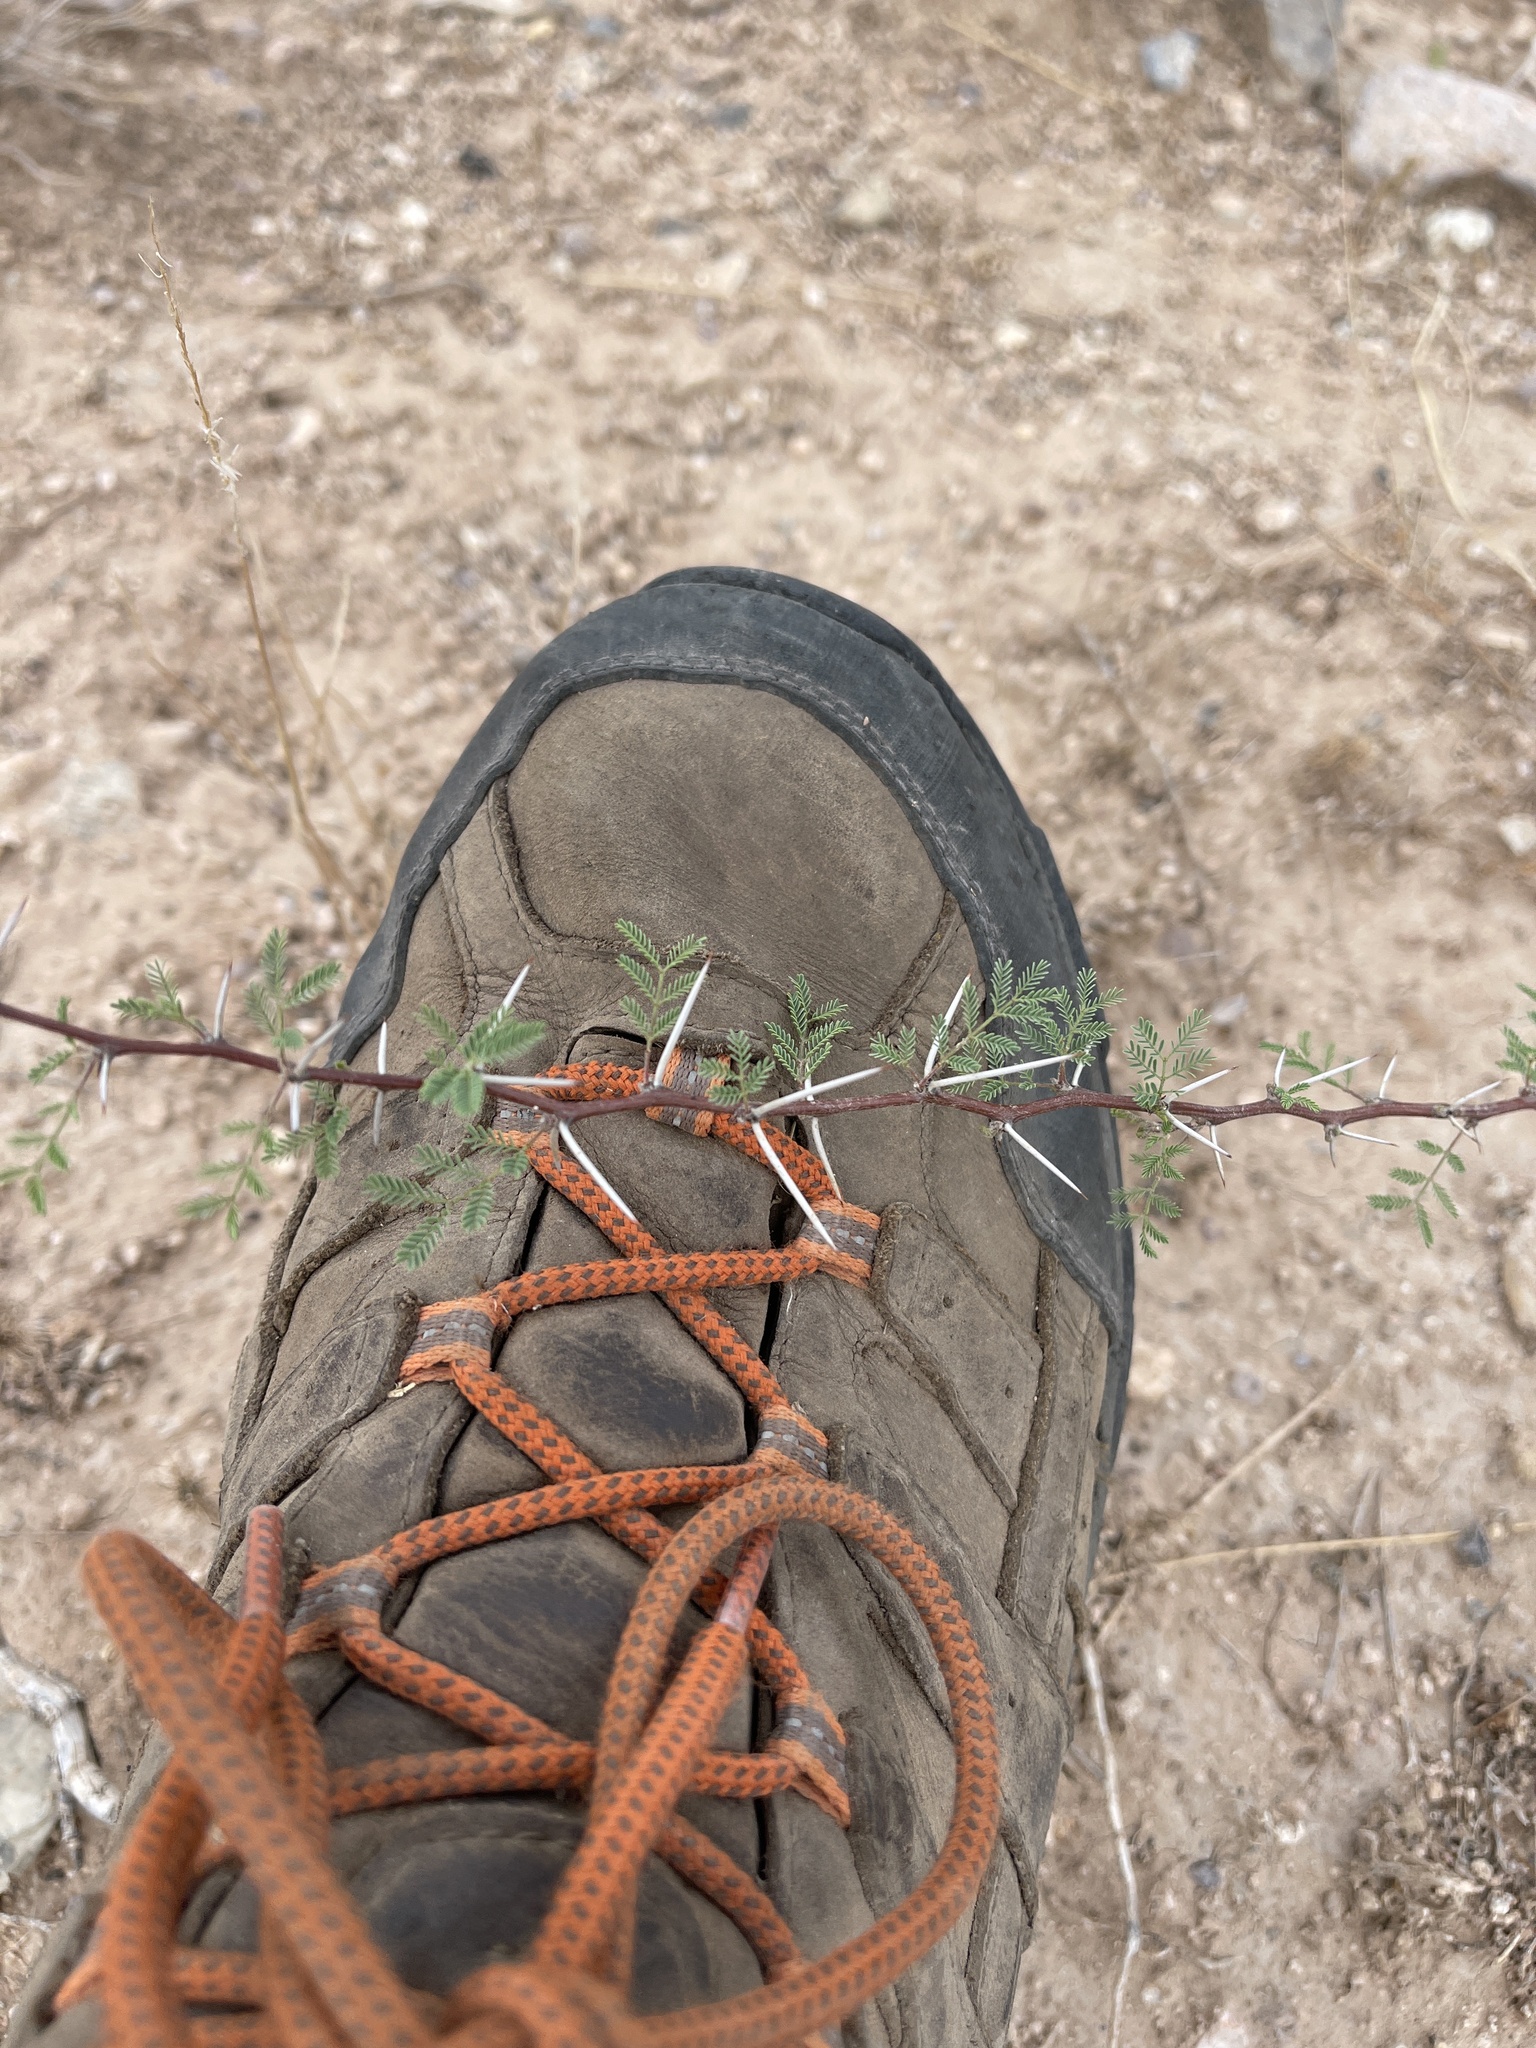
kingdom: Plantae
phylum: Tracheophyta
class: Magnoliopsida
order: Fabales
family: Fabaceae
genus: Vachellia
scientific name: Vachellia constricta
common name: Mescat acacia
